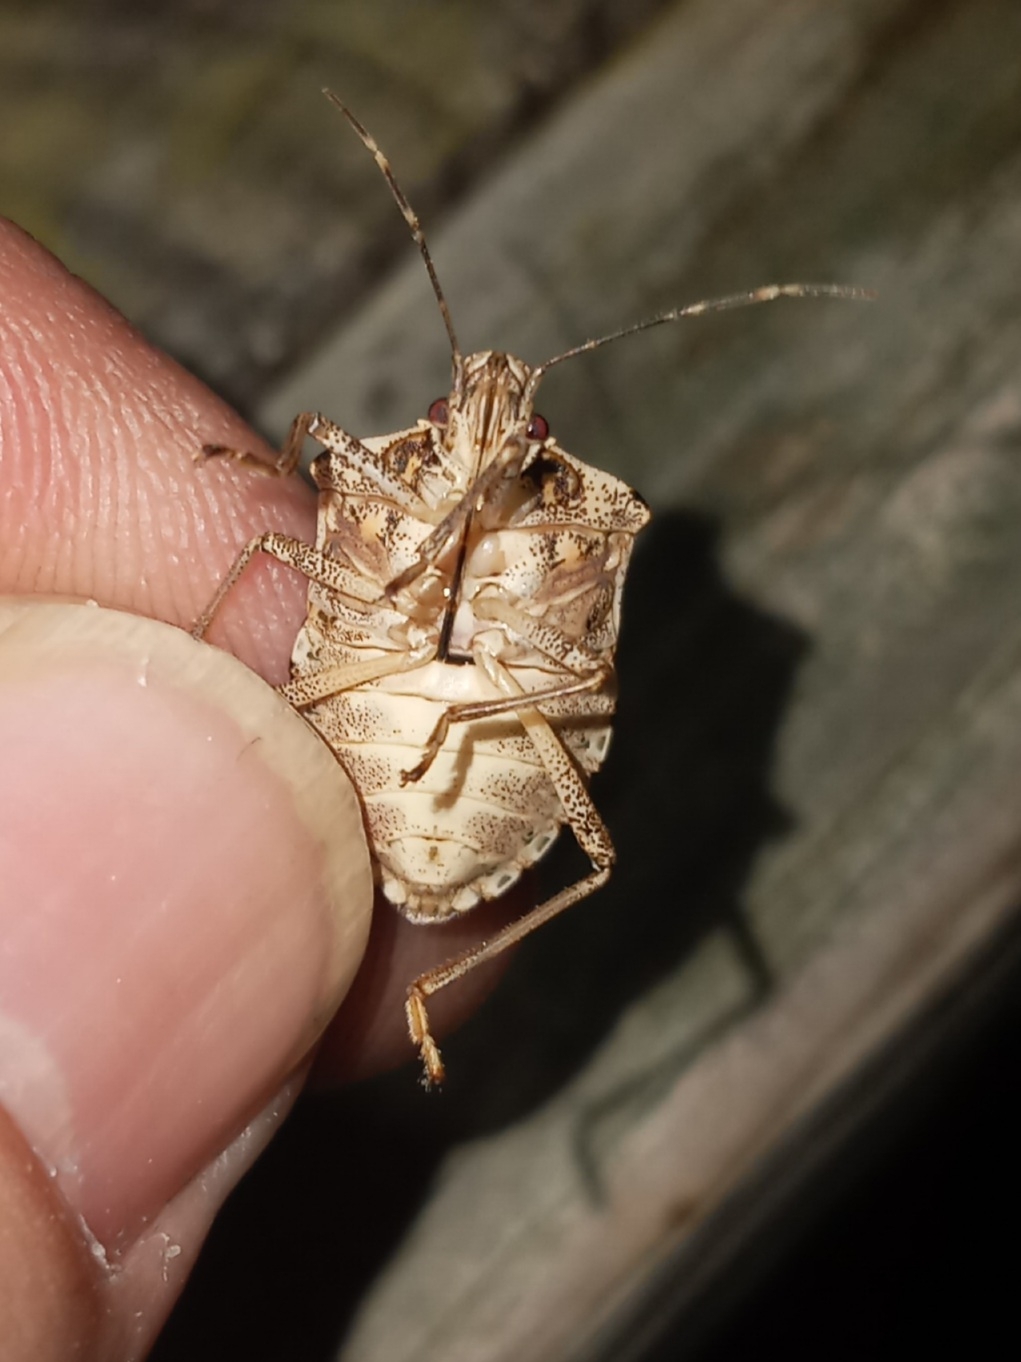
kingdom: Animalia
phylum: Arthropoda
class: Insecta
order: Hemiptera
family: Pentatomidae
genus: Halyomorpha
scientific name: Halyomorpha halys
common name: Brown marmorated stink bug
